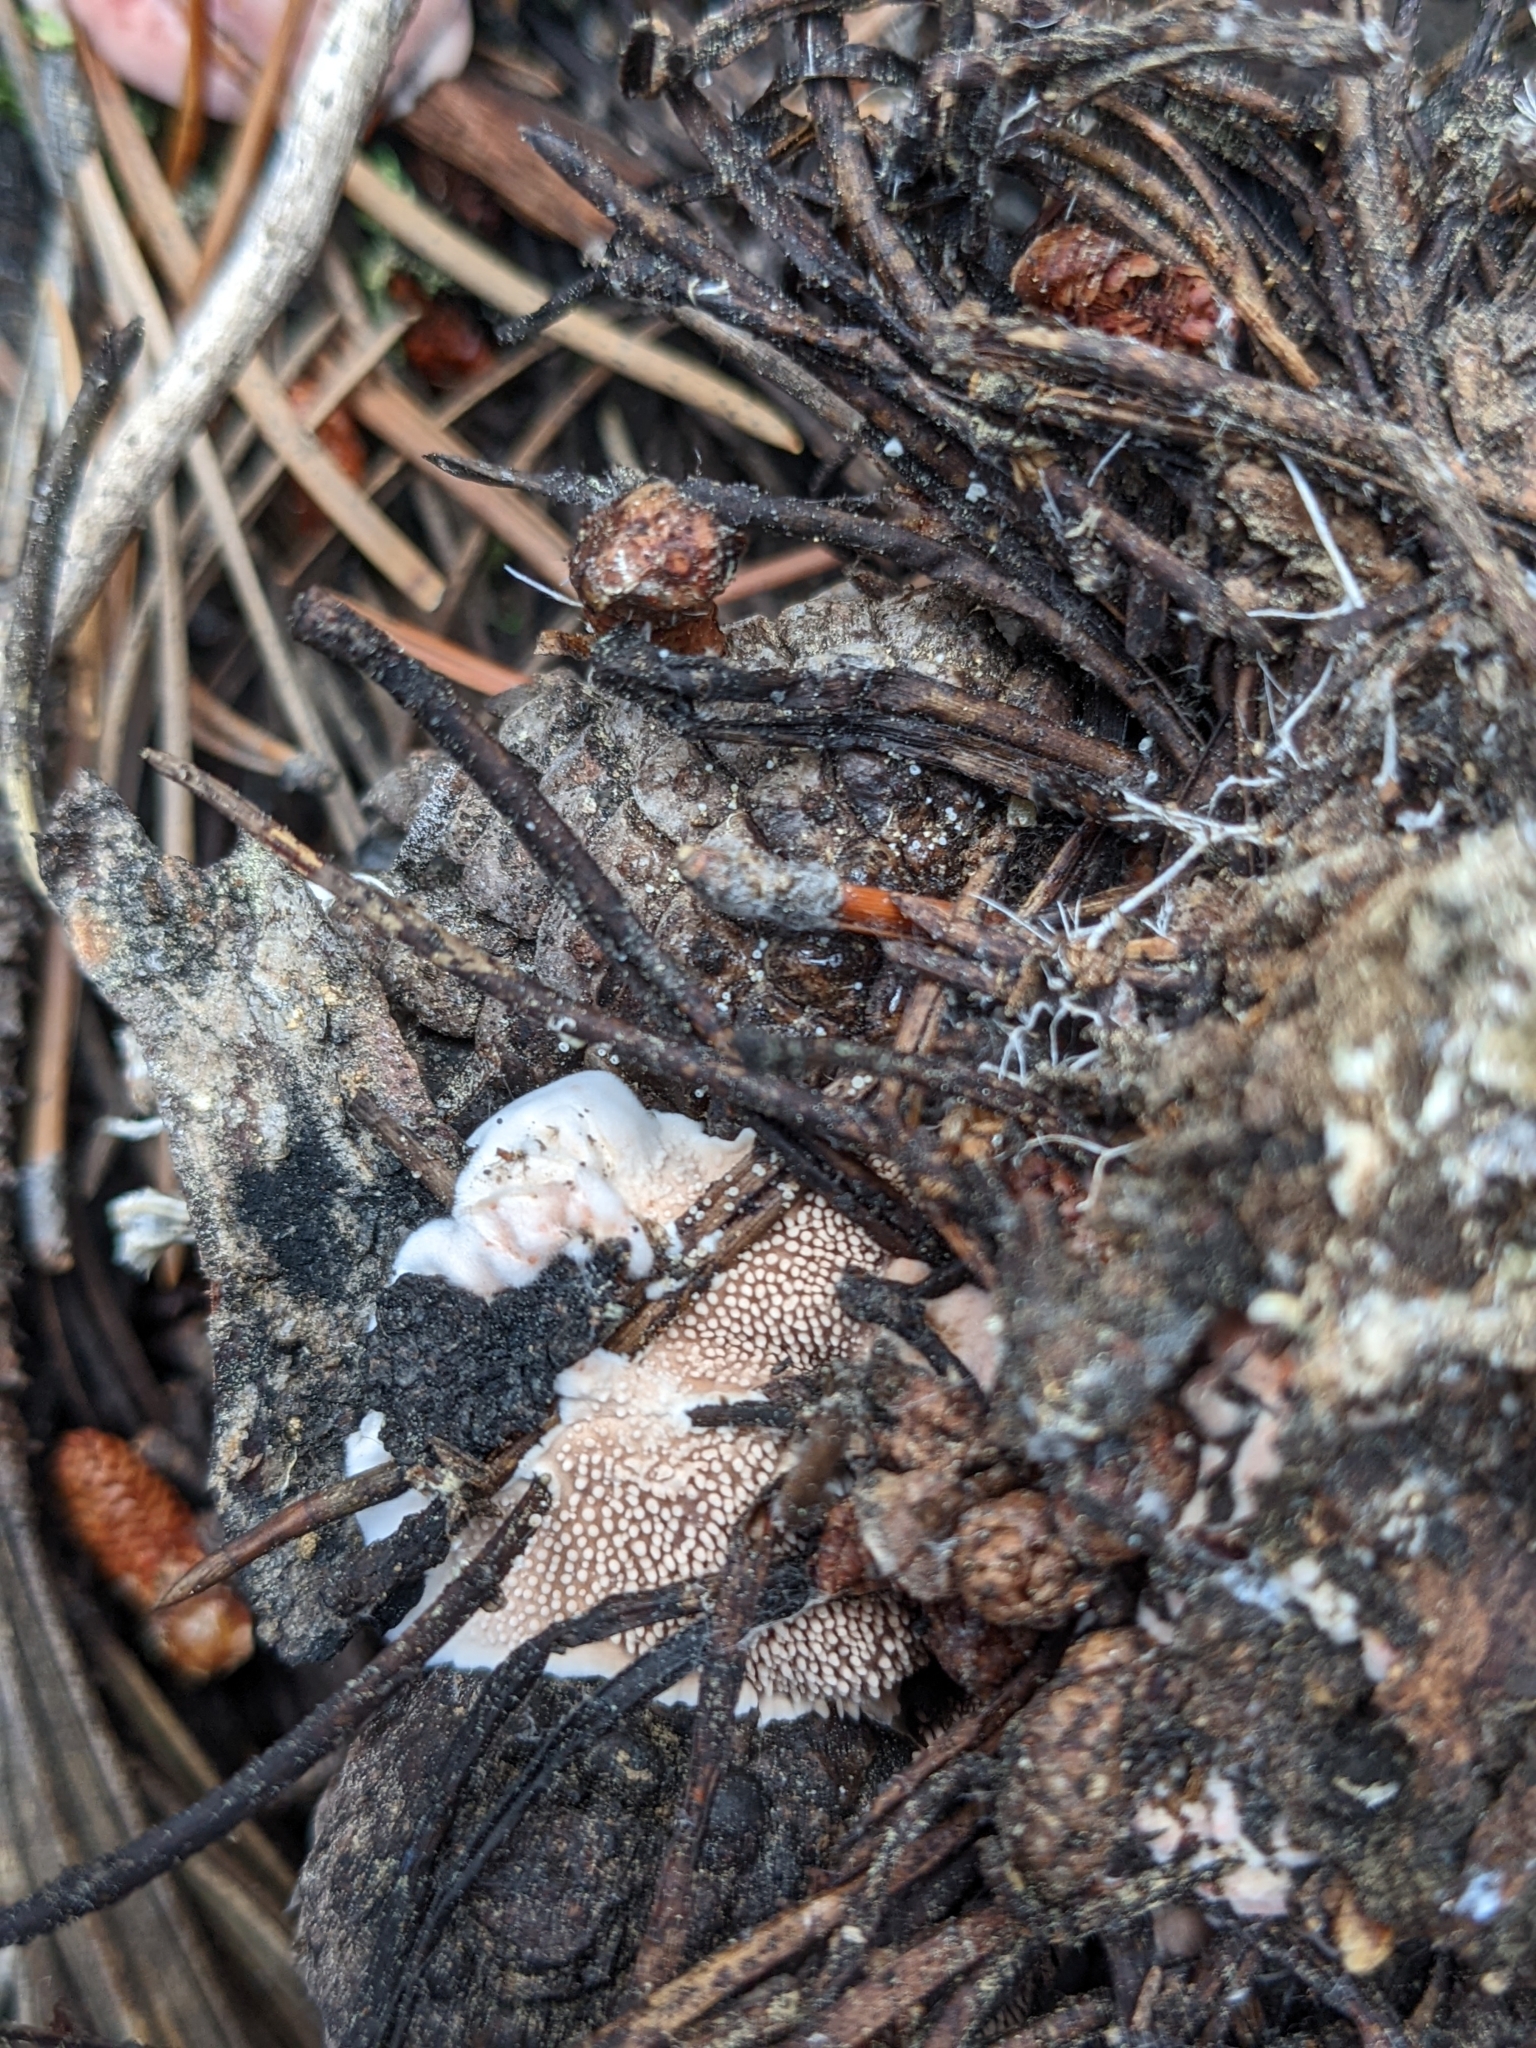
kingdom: Fungi
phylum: Basidiomycota
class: Agaricomycetes
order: Thelephorales
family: Bankeraceae
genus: Hydnellum
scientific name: Hydnellum peckii
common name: Devil's tooth
